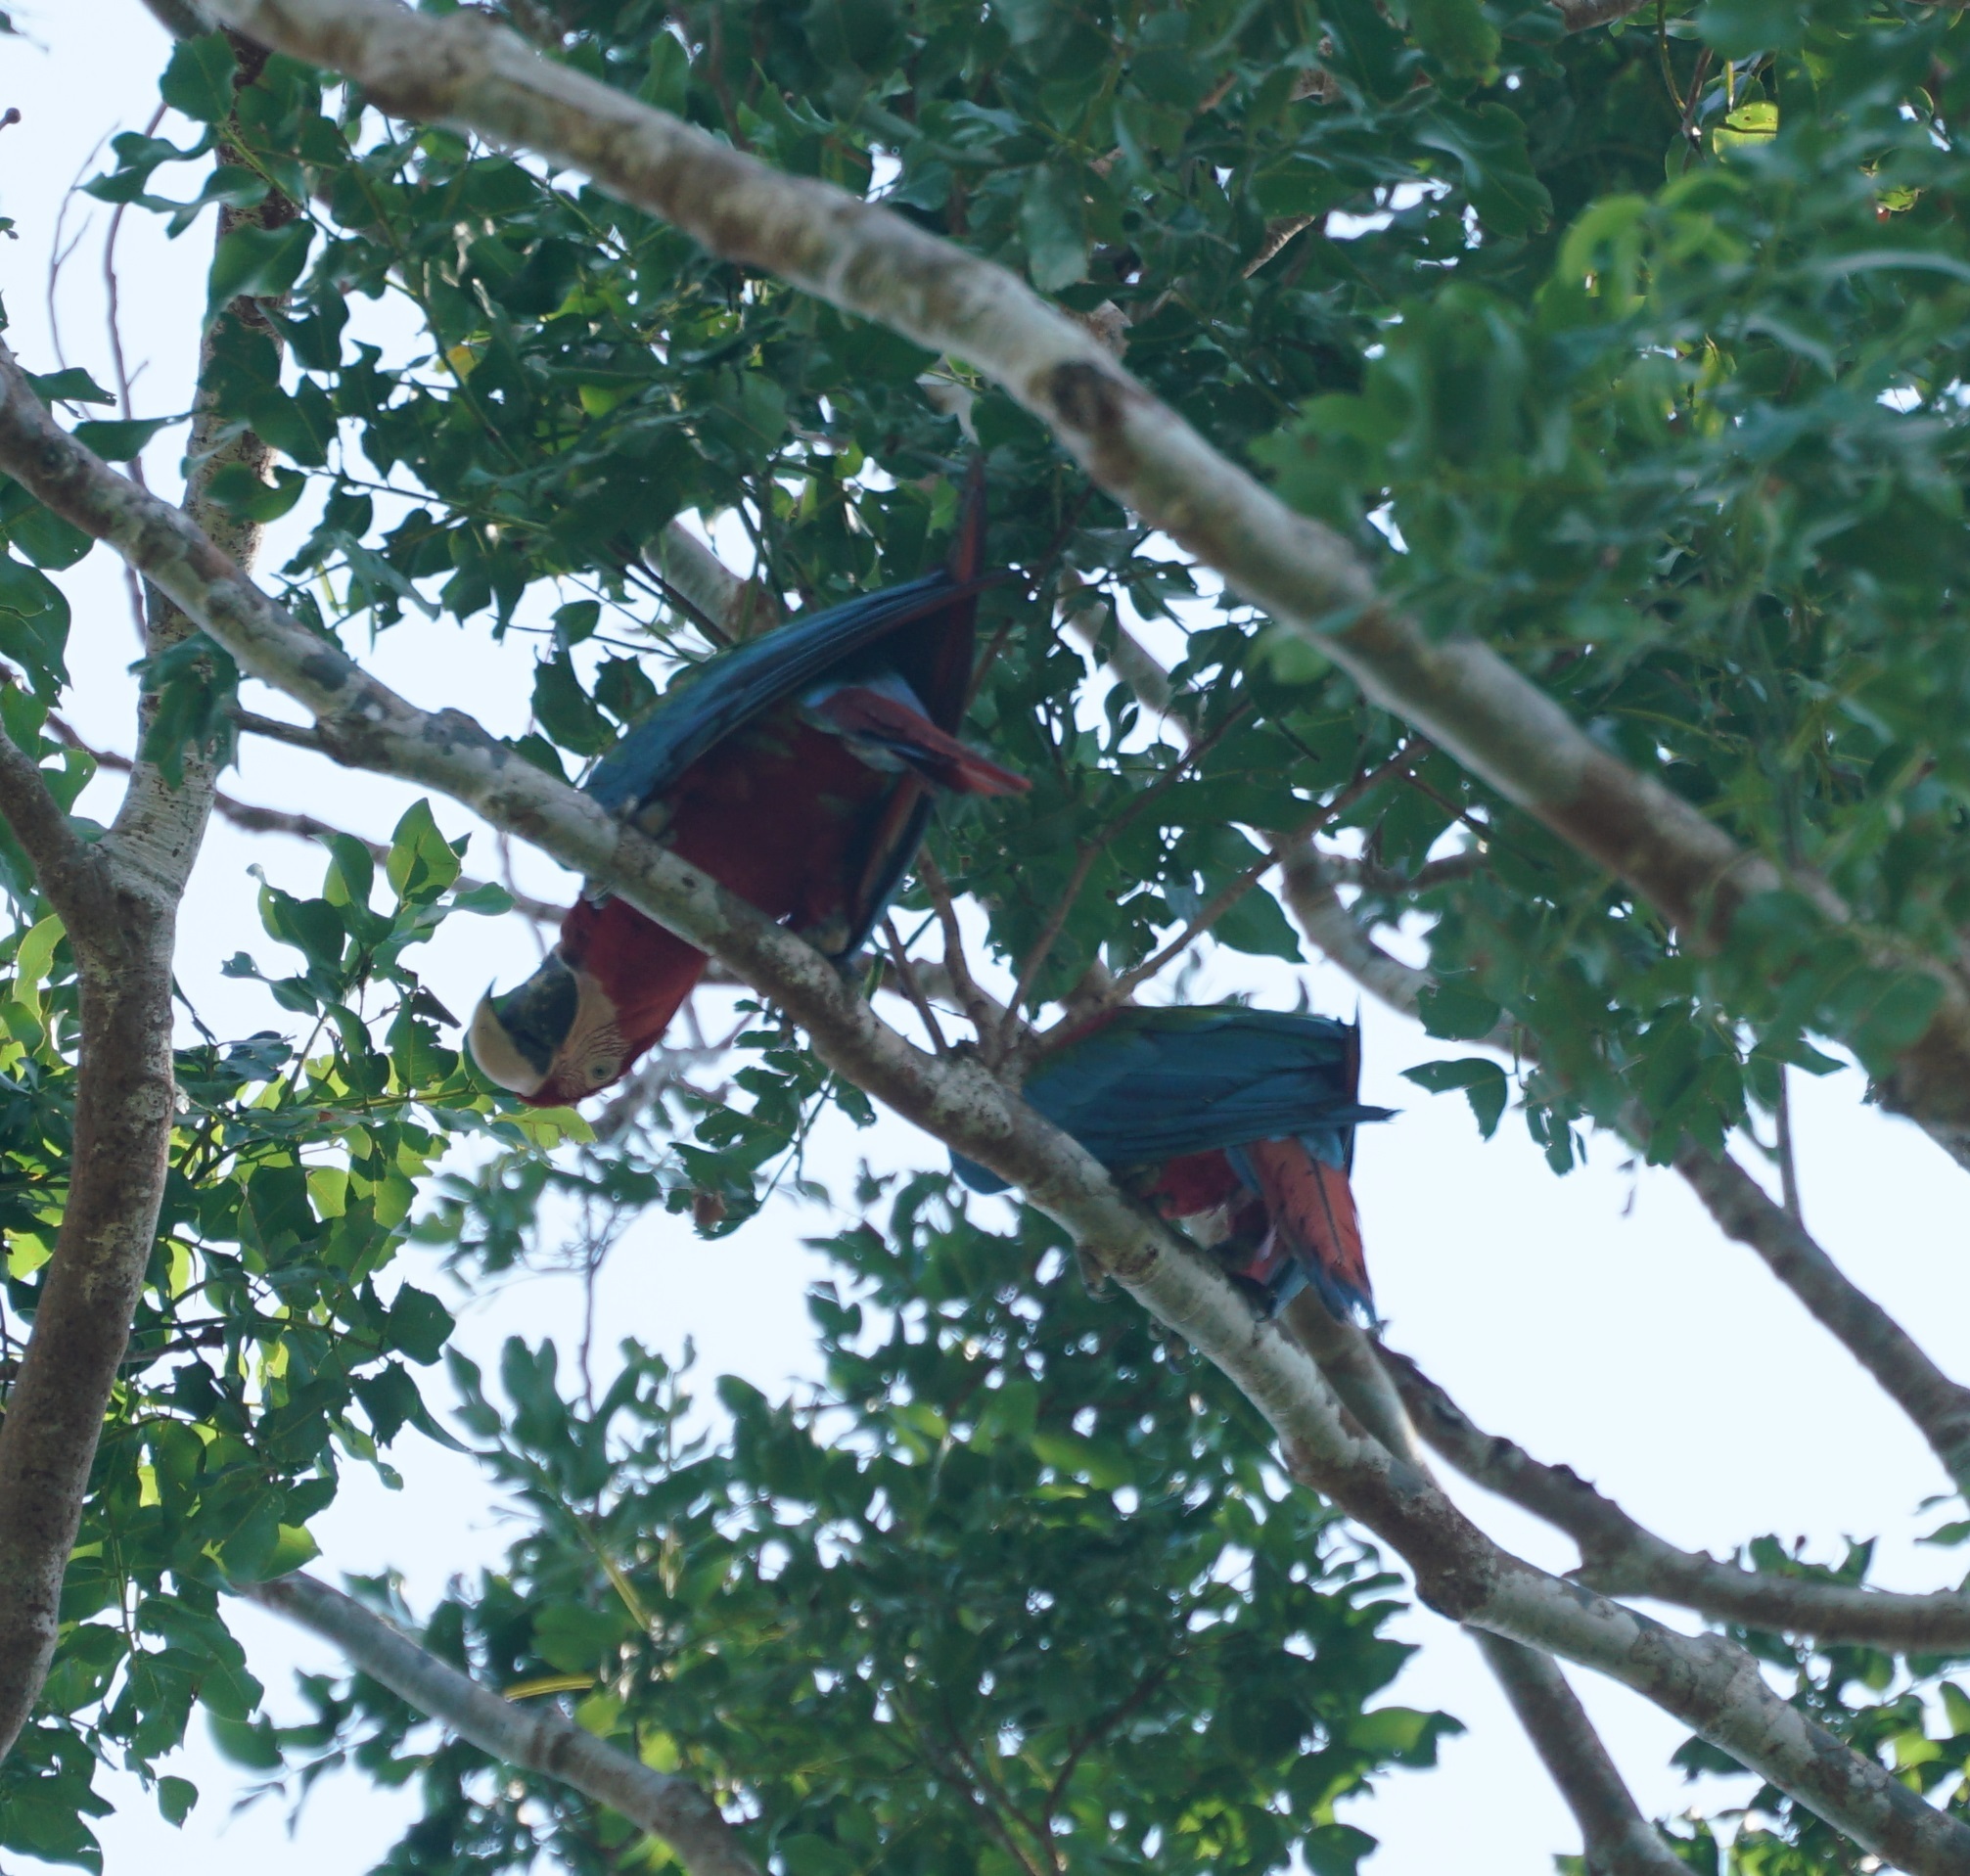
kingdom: Animalia
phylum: Chordata
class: Aves
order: Psittaciformes
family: Psittacidae
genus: Ara
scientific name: Ara chloropterus
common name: Red-and-green macaw
